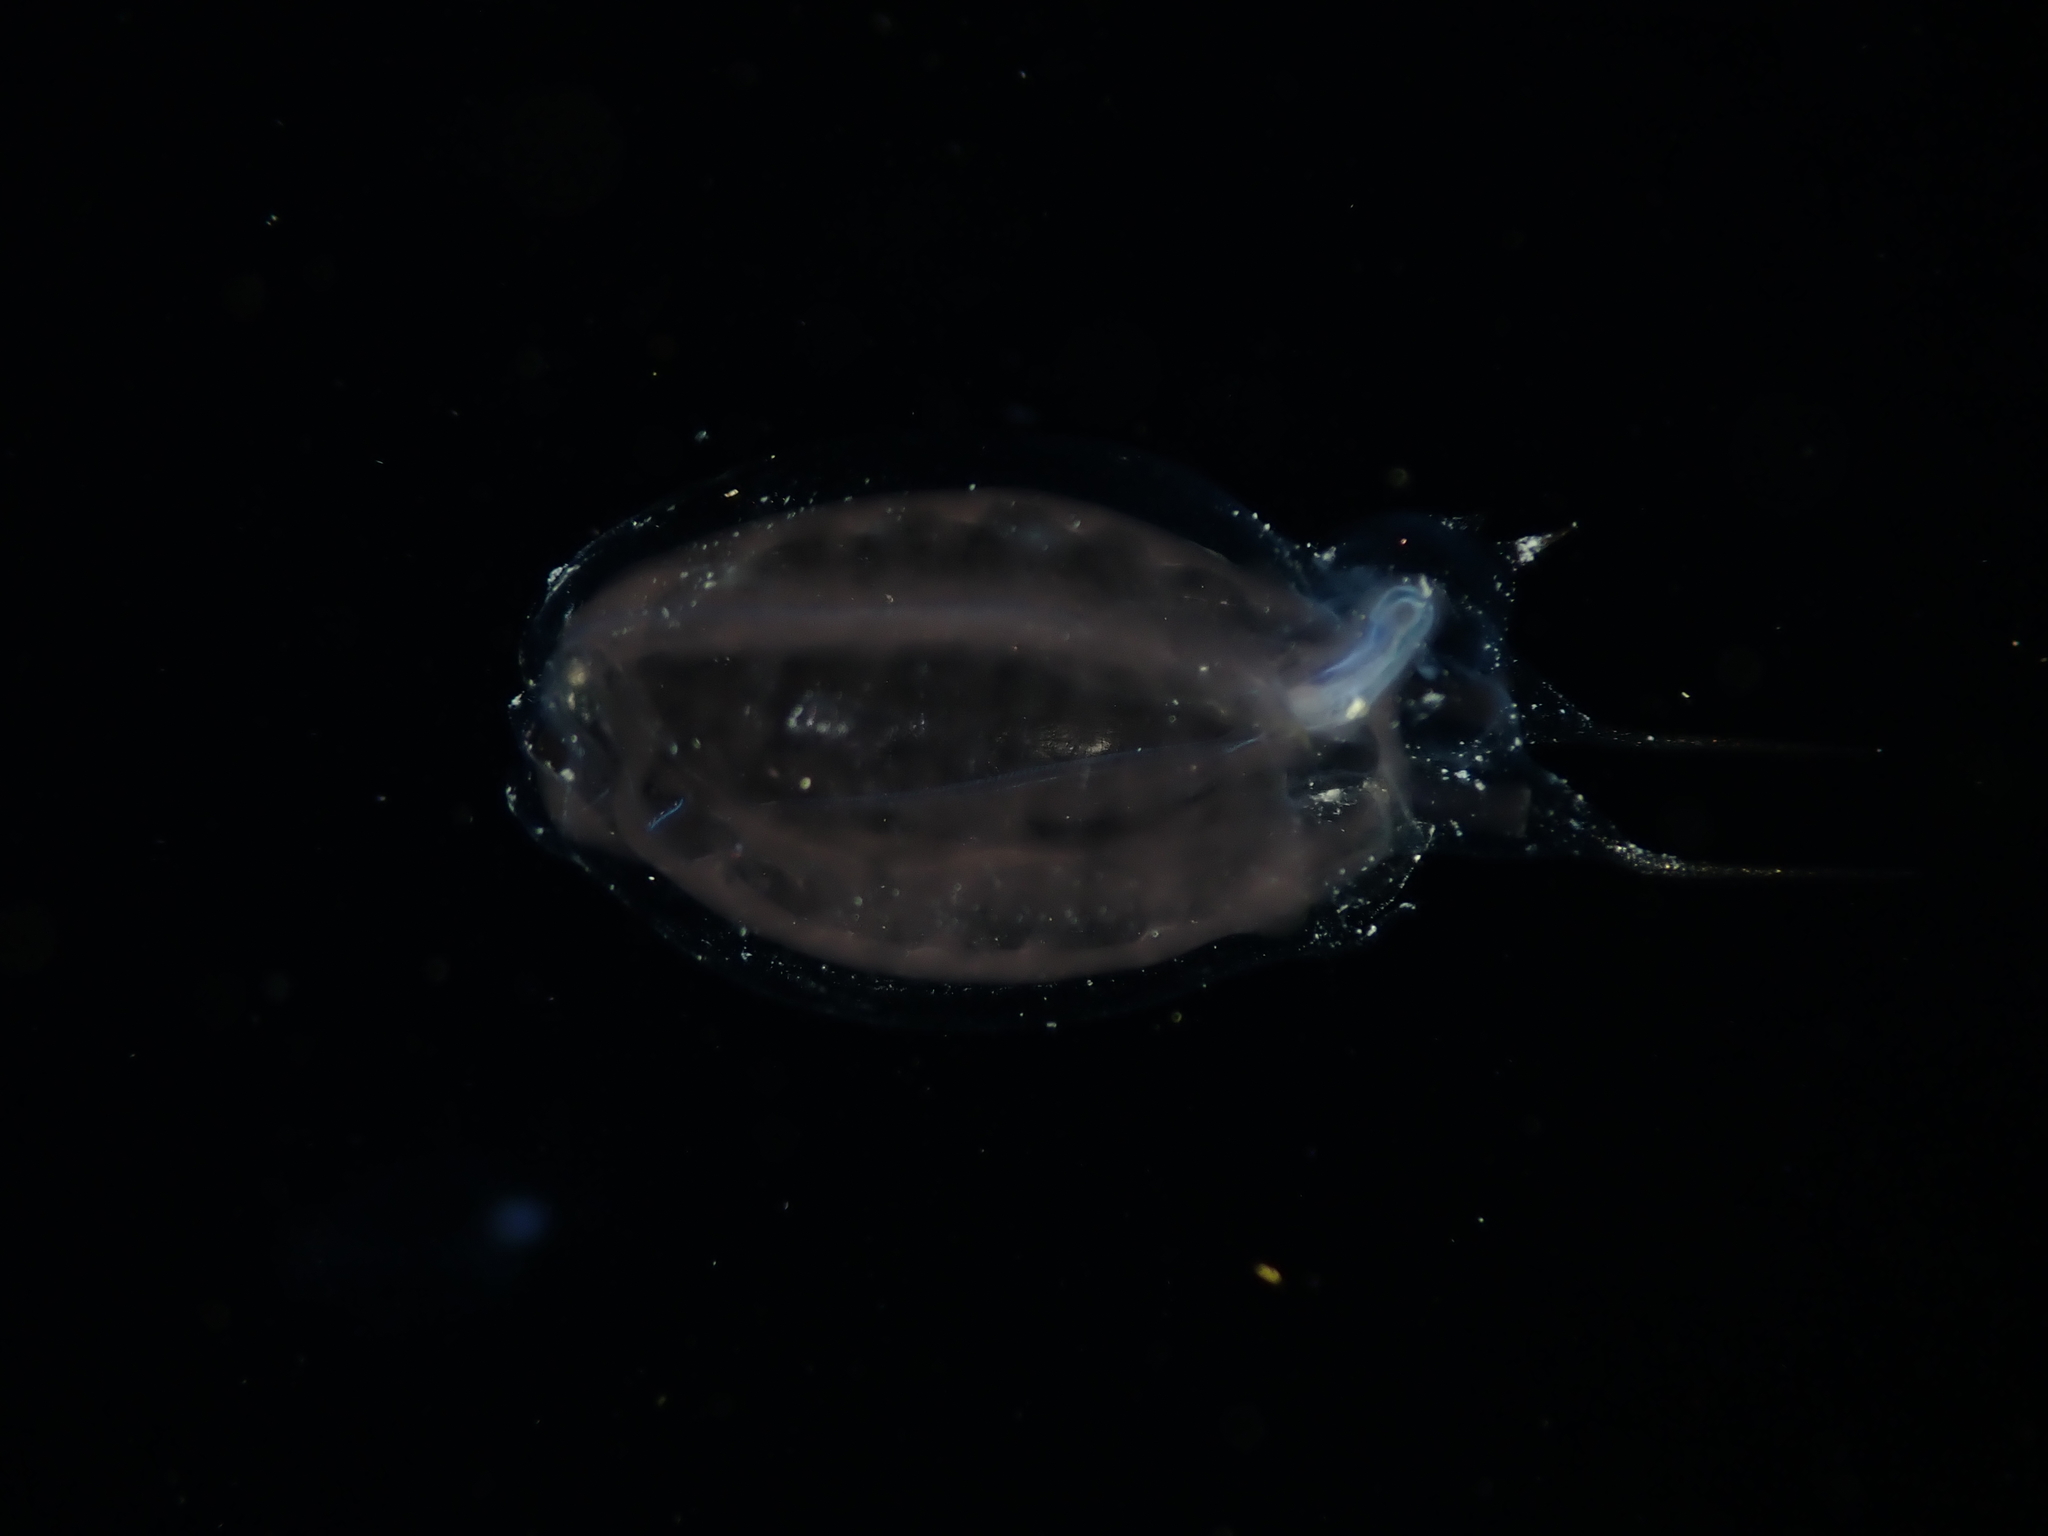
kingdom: Animalia
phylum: Chordata
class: Thaliacea
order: Salpida
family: Salpidae
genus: Thalia
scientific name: Thalia democratica
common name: Salp
